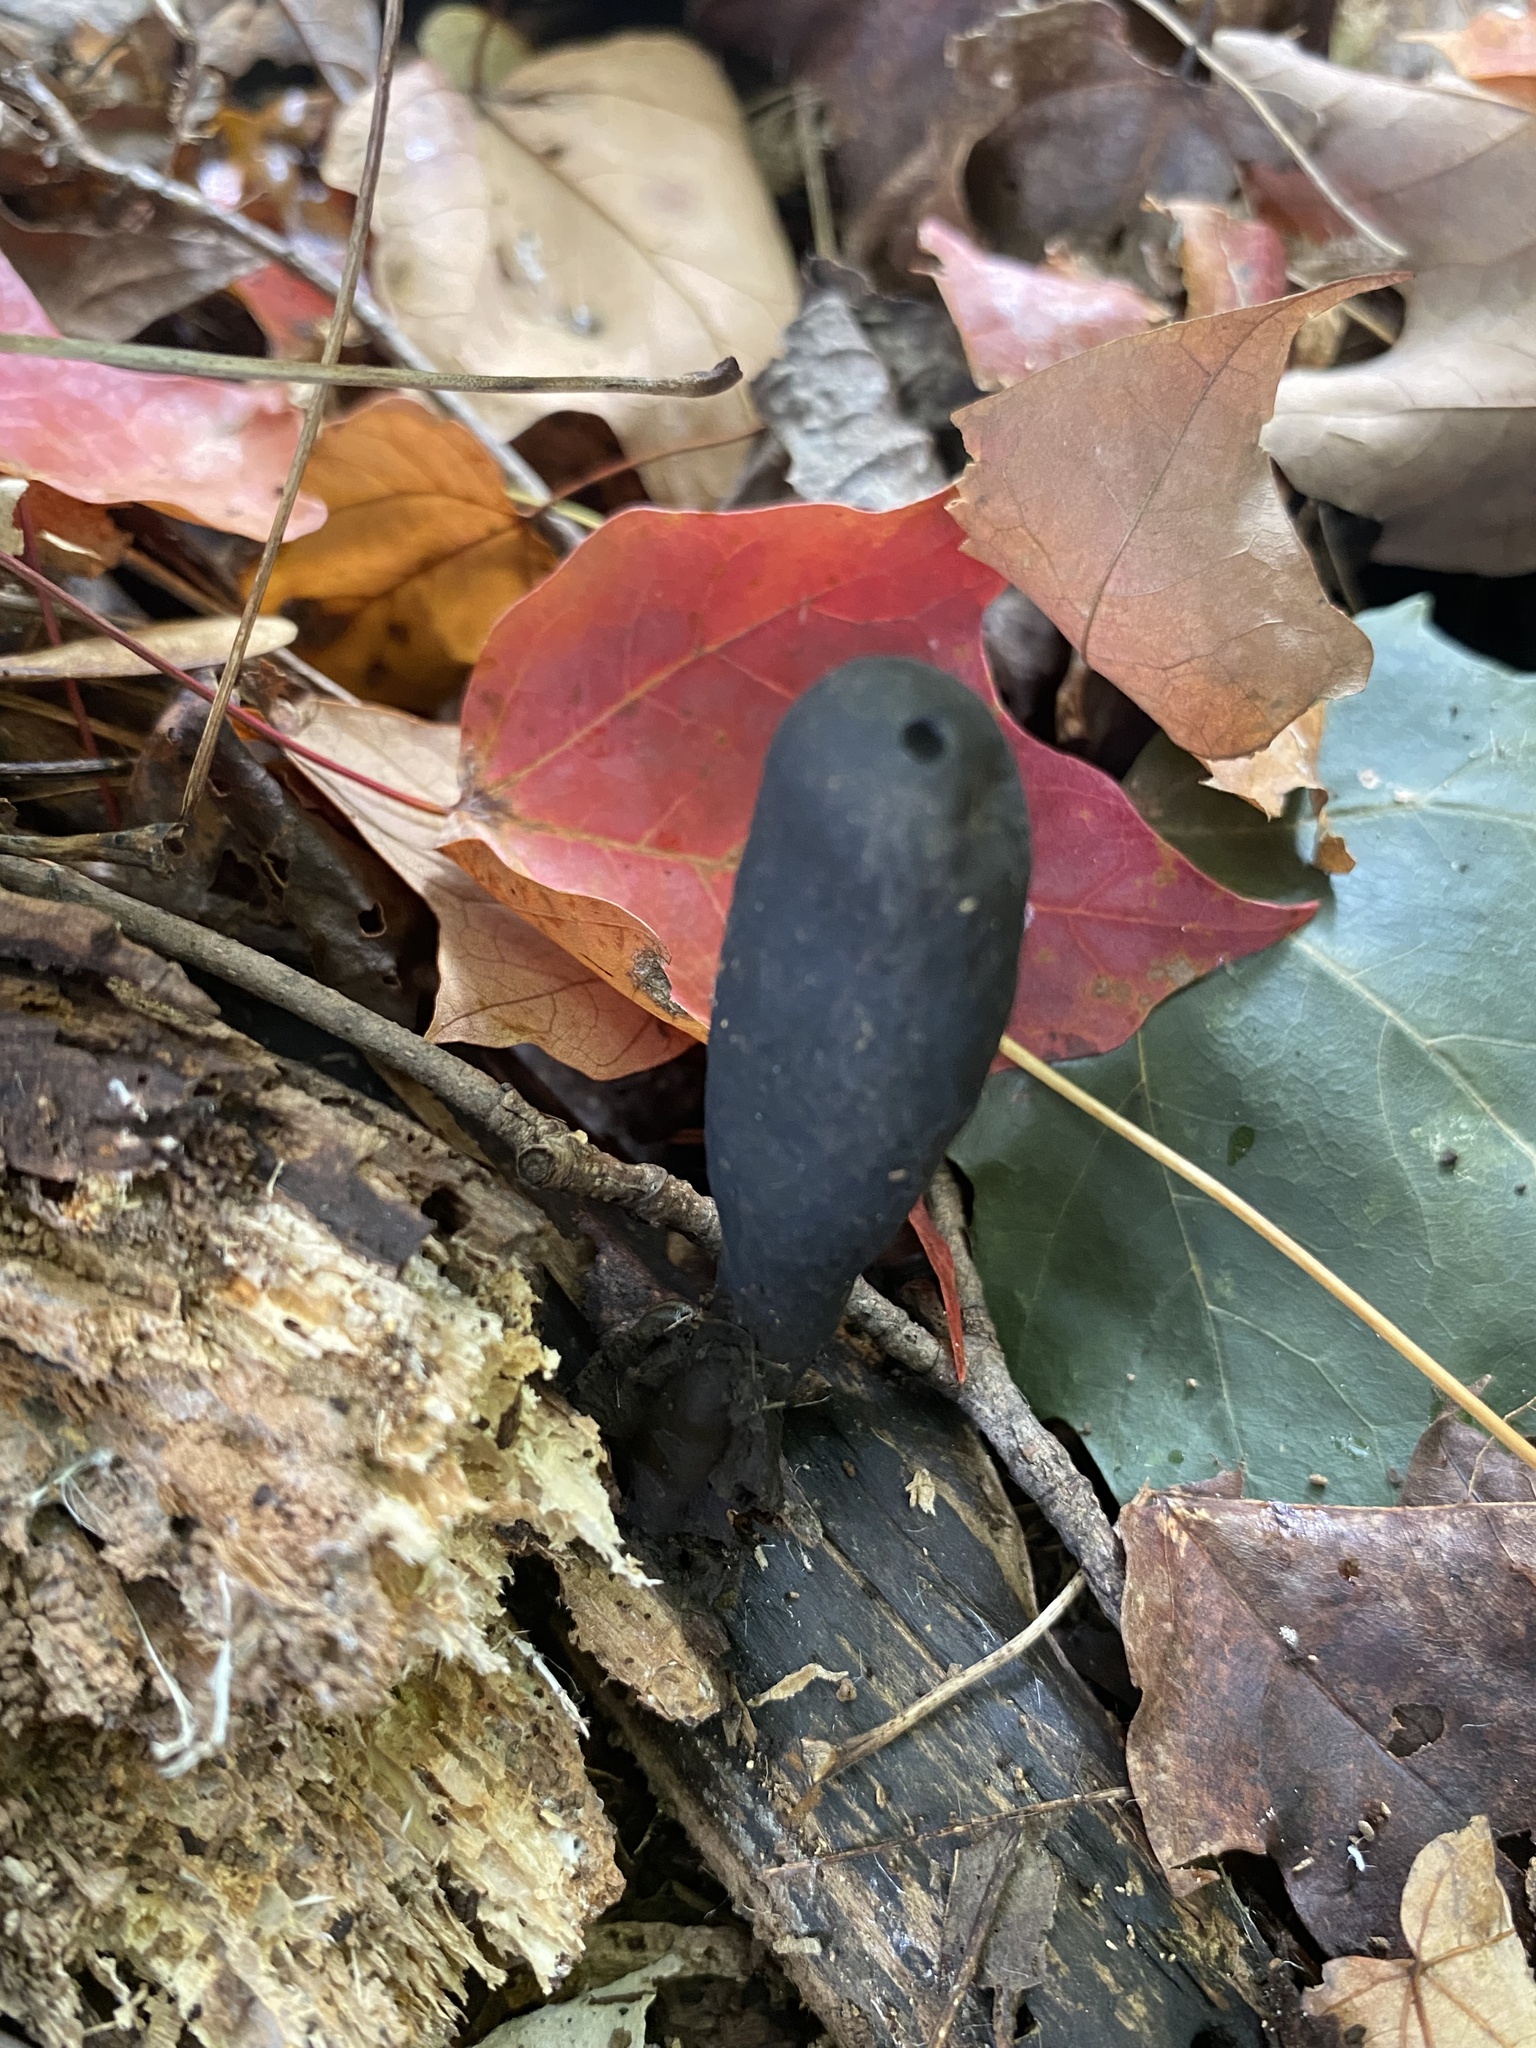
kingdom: Fungi
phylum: Ascomycota
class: Sordariomycetes
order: Xylariales
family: Xylariaceae
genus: Xylaria
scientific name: Xylaria polymorpha
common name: Dead man's fingers
